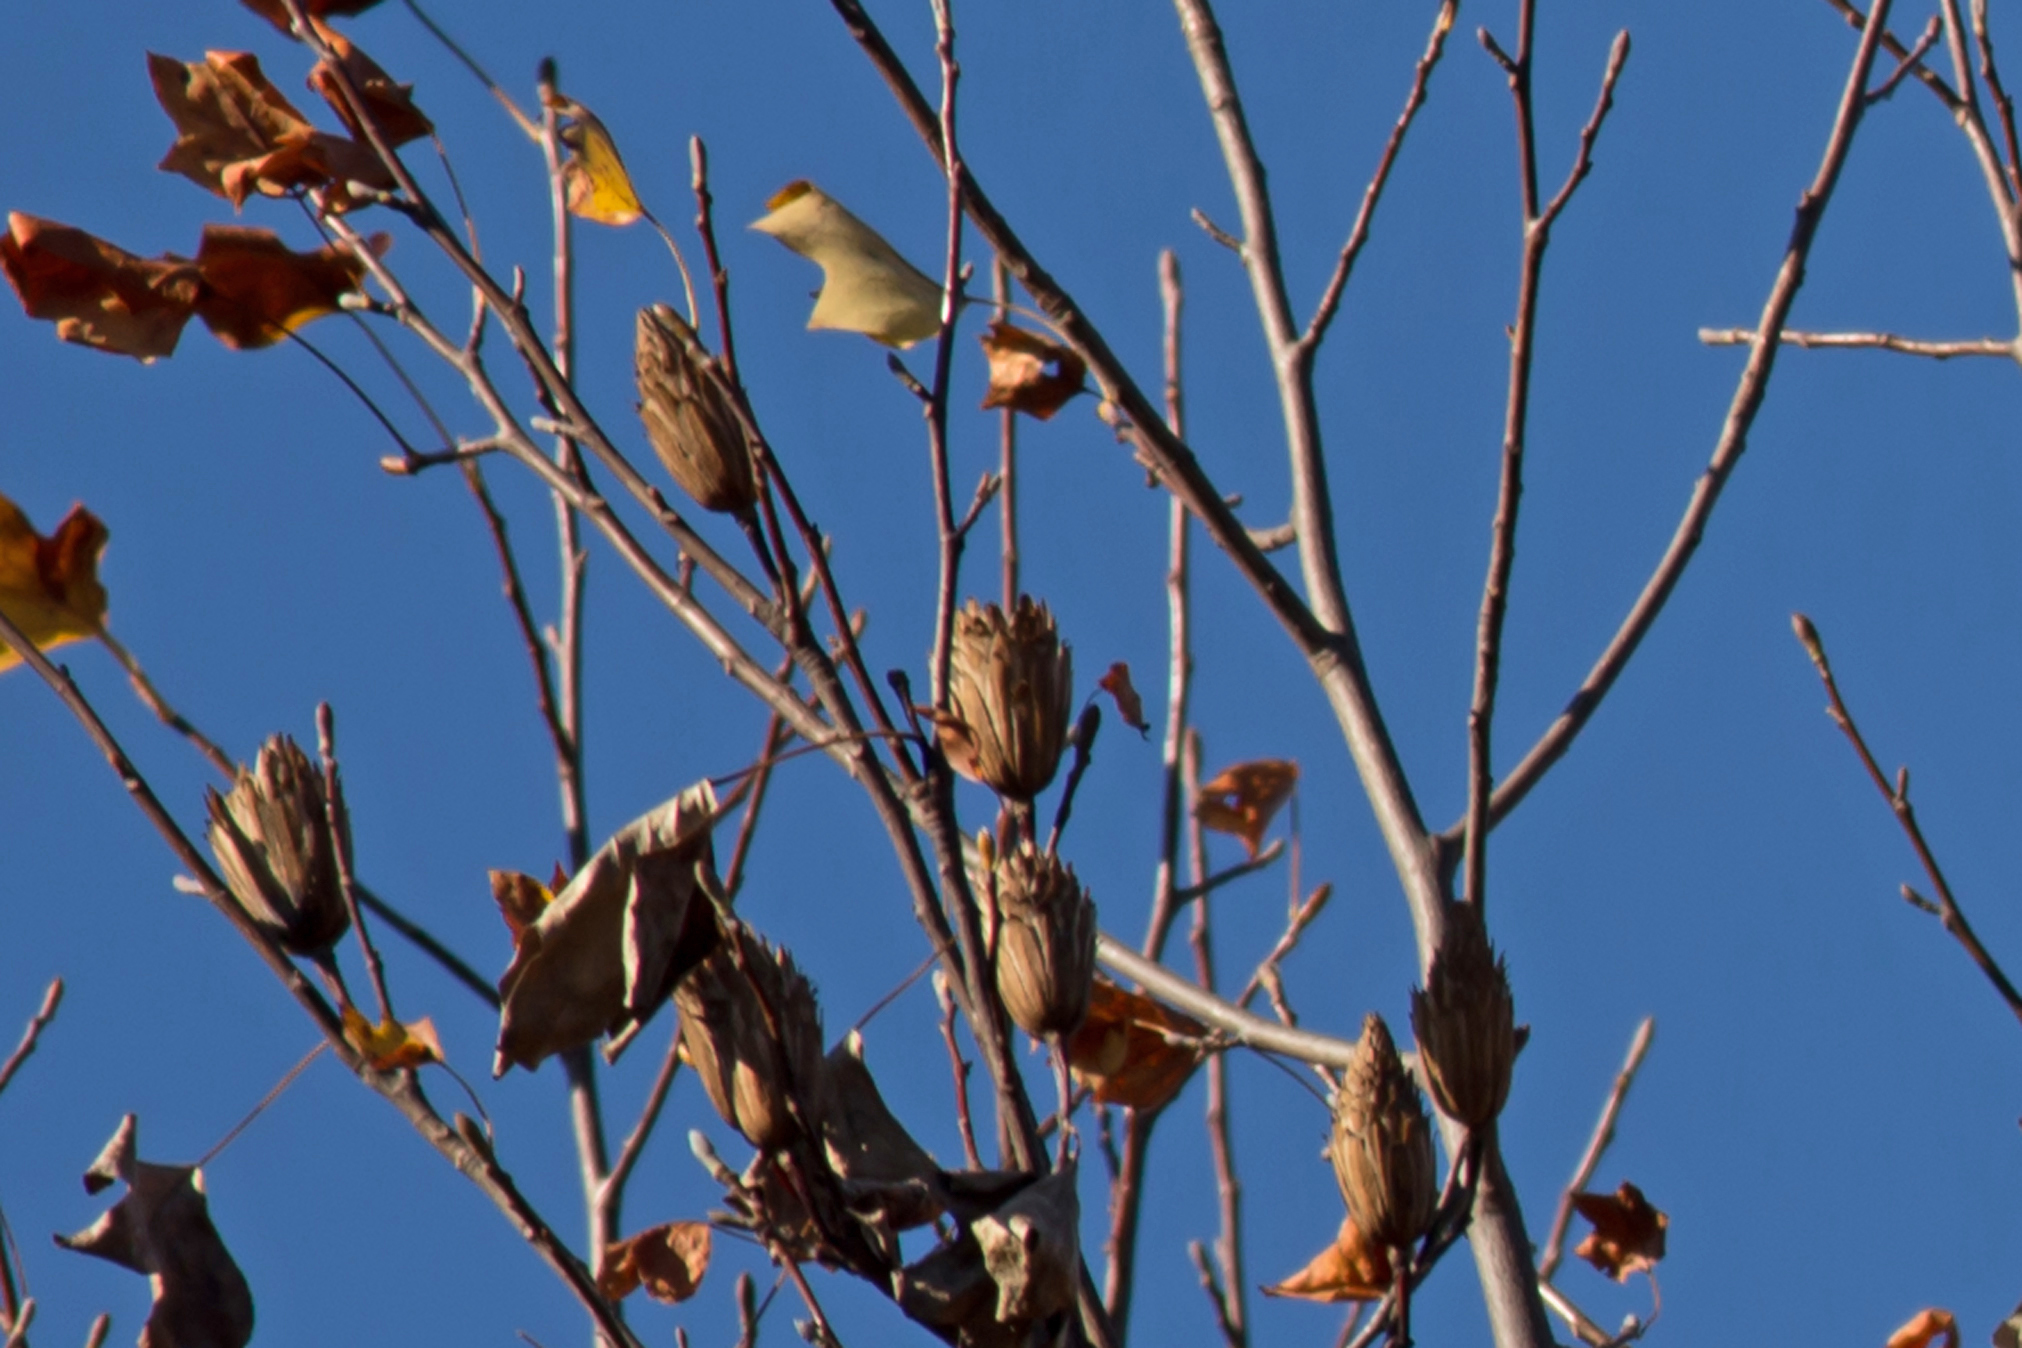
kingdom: Plantae
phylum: Tracheophyta
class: Magnoliopsida
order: Magnoliales
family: Magnoliaceae
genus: Liriodendron
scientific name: Liriodendron tulipifera
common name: Tulip tree
